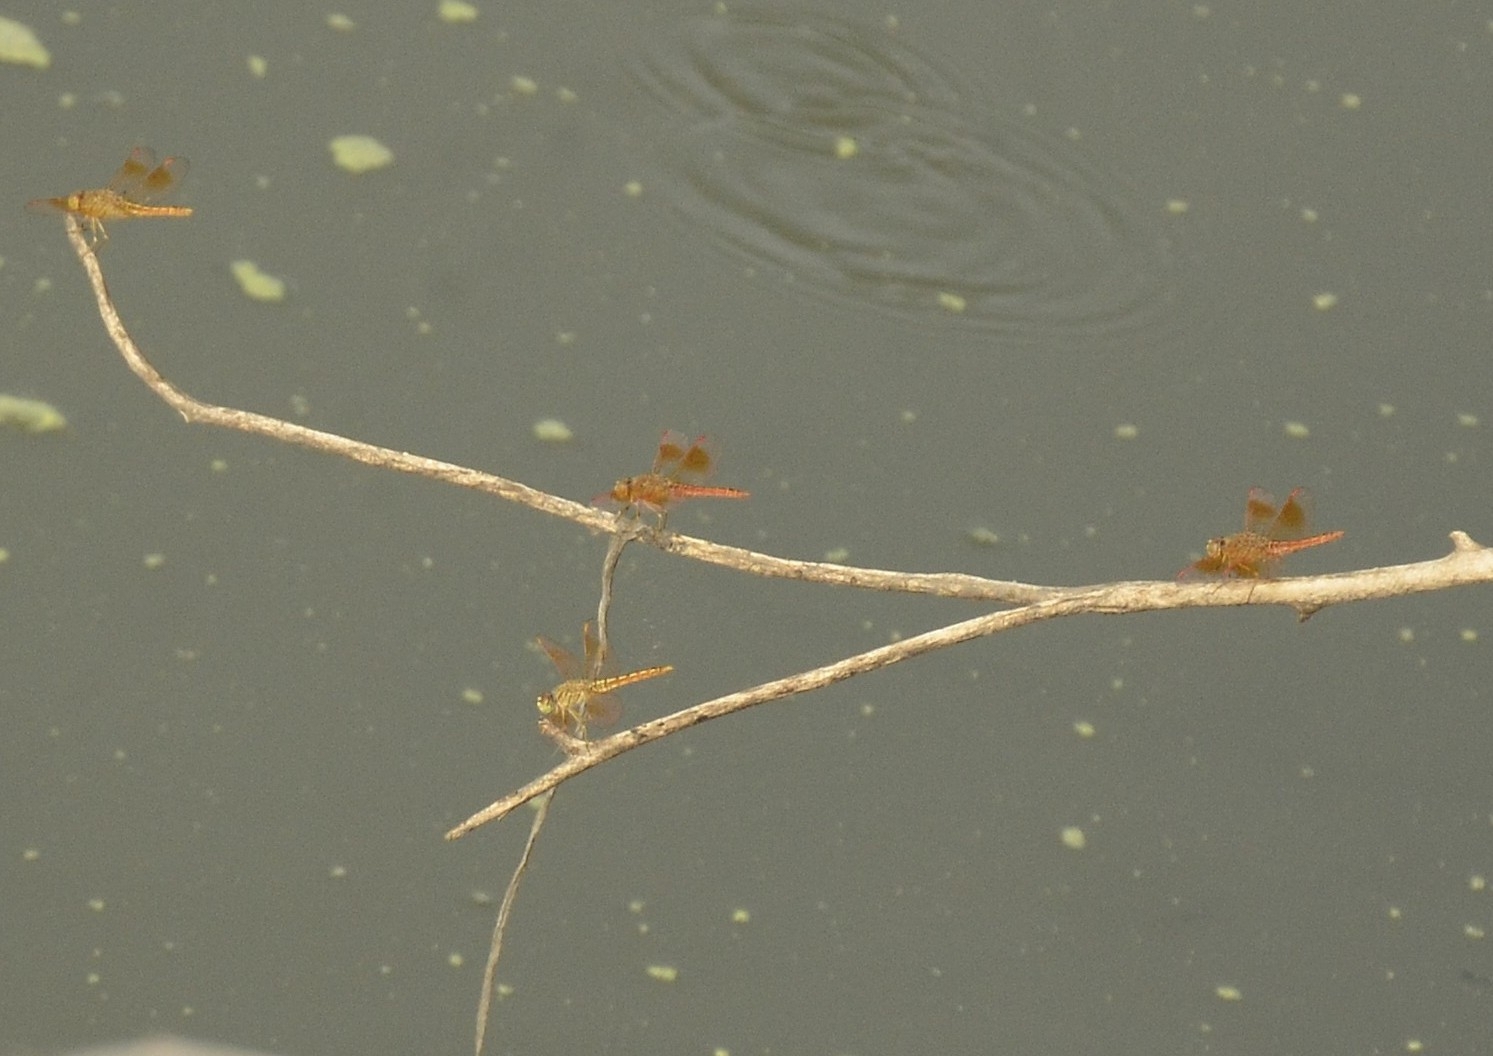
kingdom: Animalia
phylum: Arthropoda
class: Insecta
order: Odonata
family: Libellulidae
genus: Brachythemis
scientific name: Brachythemis contaminata
